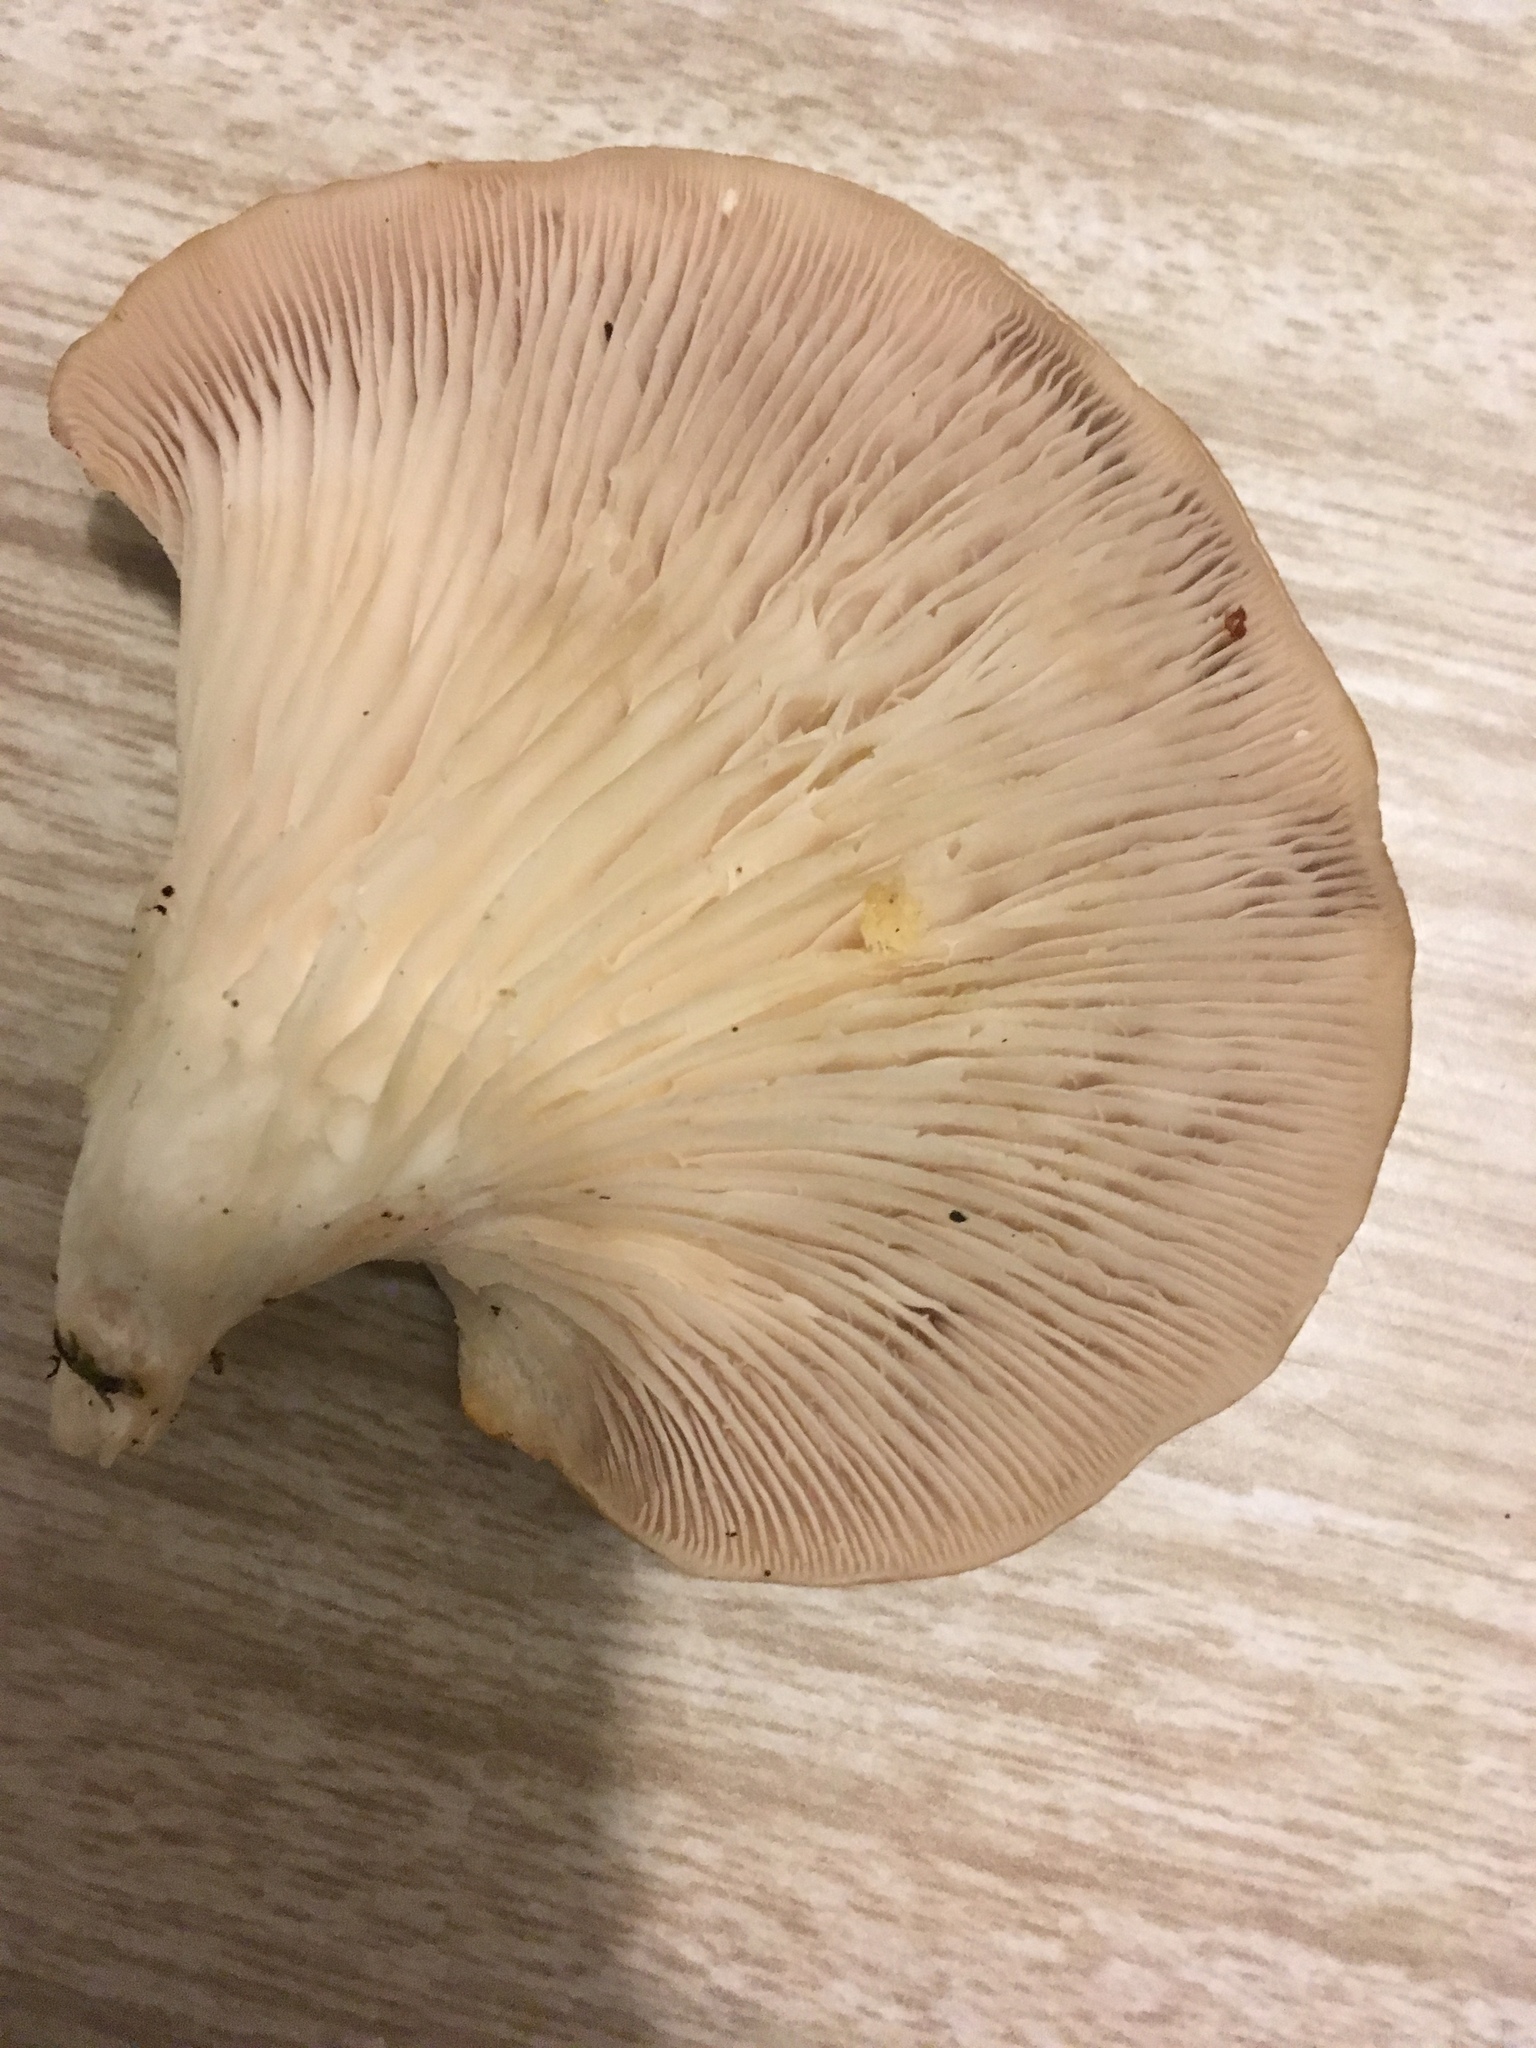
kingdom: Fungi
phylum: Basidiomycota
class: Agaricomycetes
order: Agaricales
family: Pleurotaceae
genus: Pleurotus
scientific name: Pleurotus ostreatus
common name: Oyster mushroom
